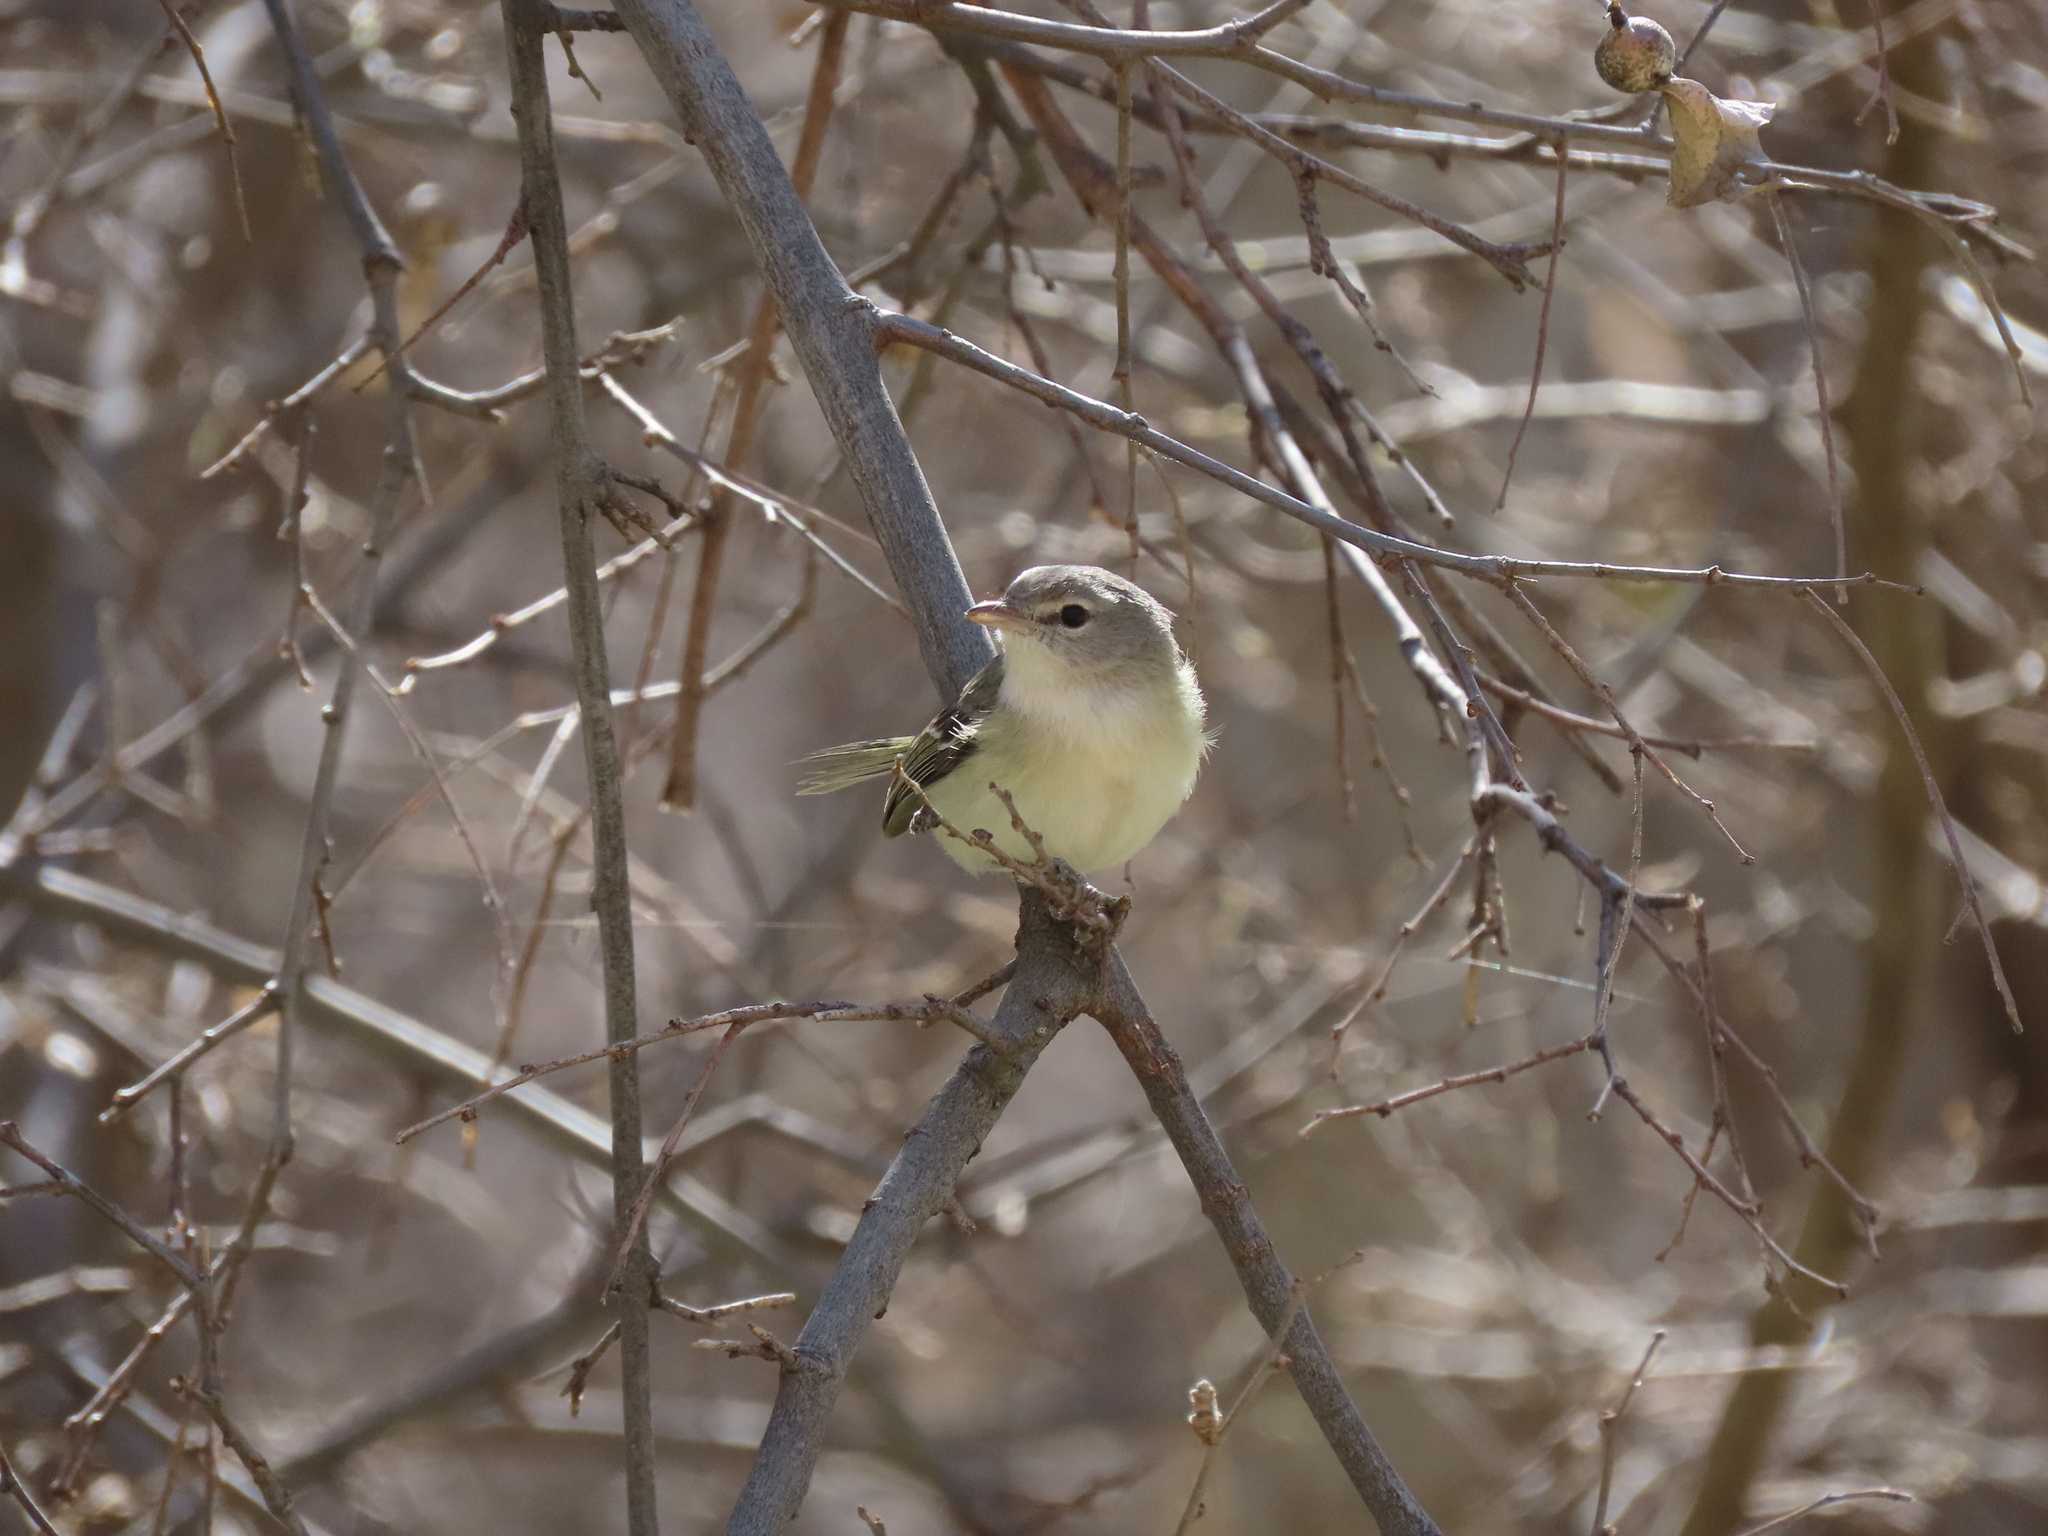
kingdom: Animalia
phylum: Chordata
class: Aves
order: Passeriformes
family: Vireonidae
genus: Vireo
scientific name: Vireo bellii
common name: Bell's vireo
